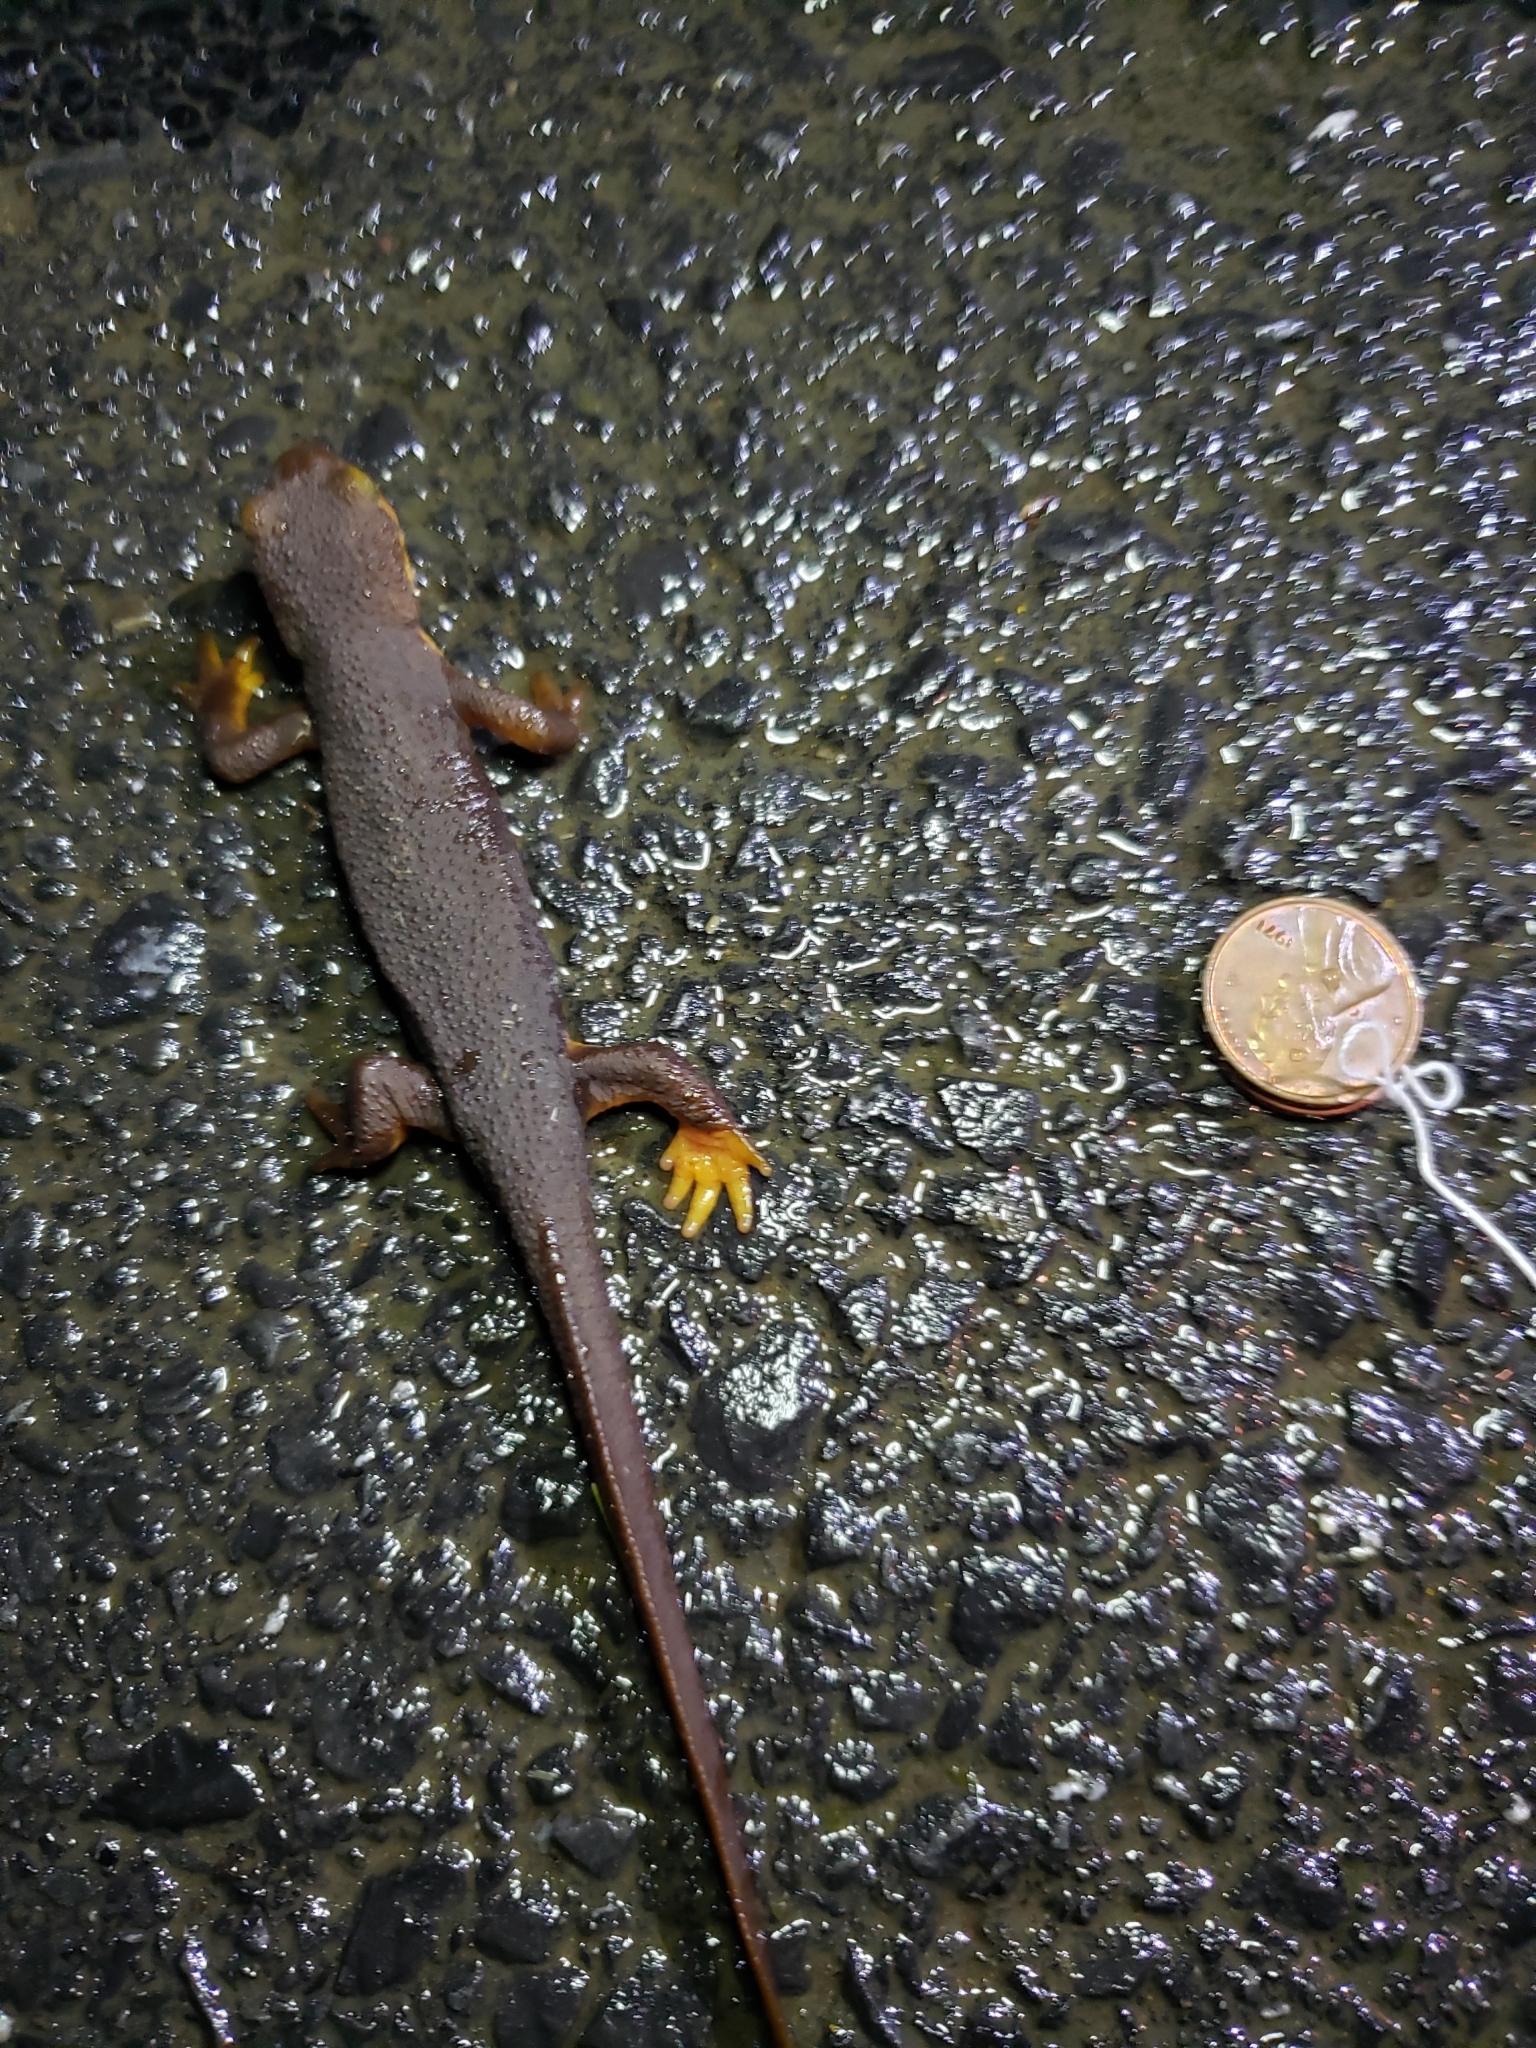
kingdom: Animalia
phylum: Chordata
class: Amphibia
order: Caudata
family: Salamandridae
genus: Taricha
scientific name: Taricha torosa
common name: California newt
